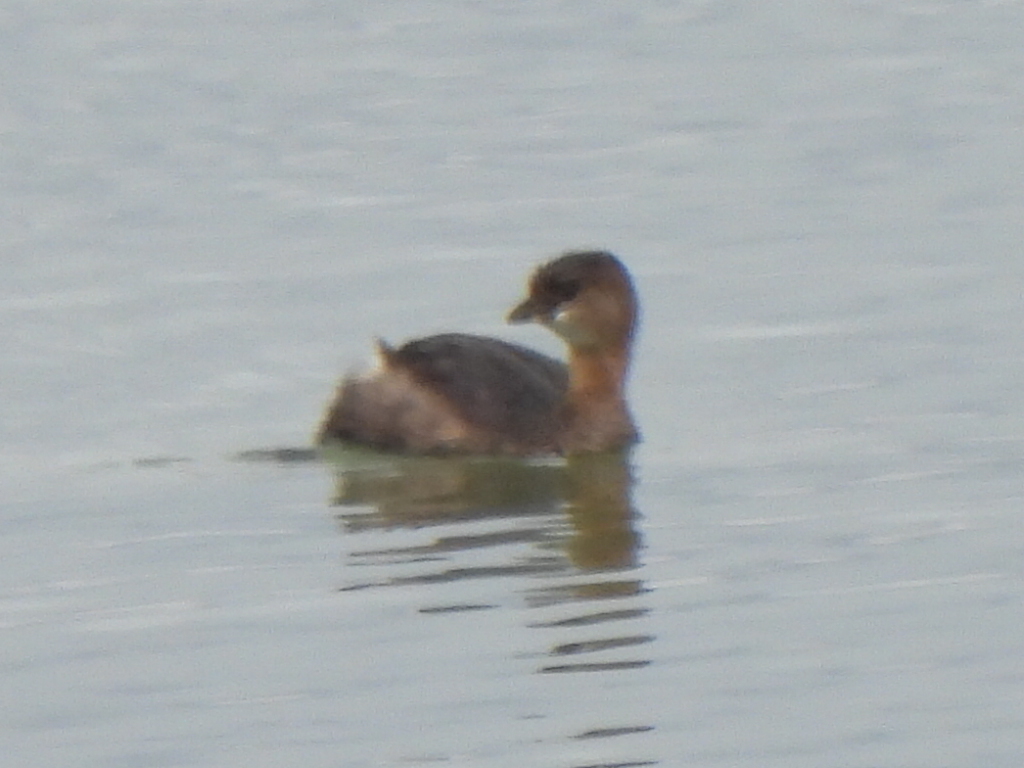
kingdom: Animalia
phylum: Chordata
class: Aves
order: Podicipediformes
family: Podicipedidae
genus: Podilymbus
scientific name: Podilymbus podiceps
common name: Pied-billed grebe
